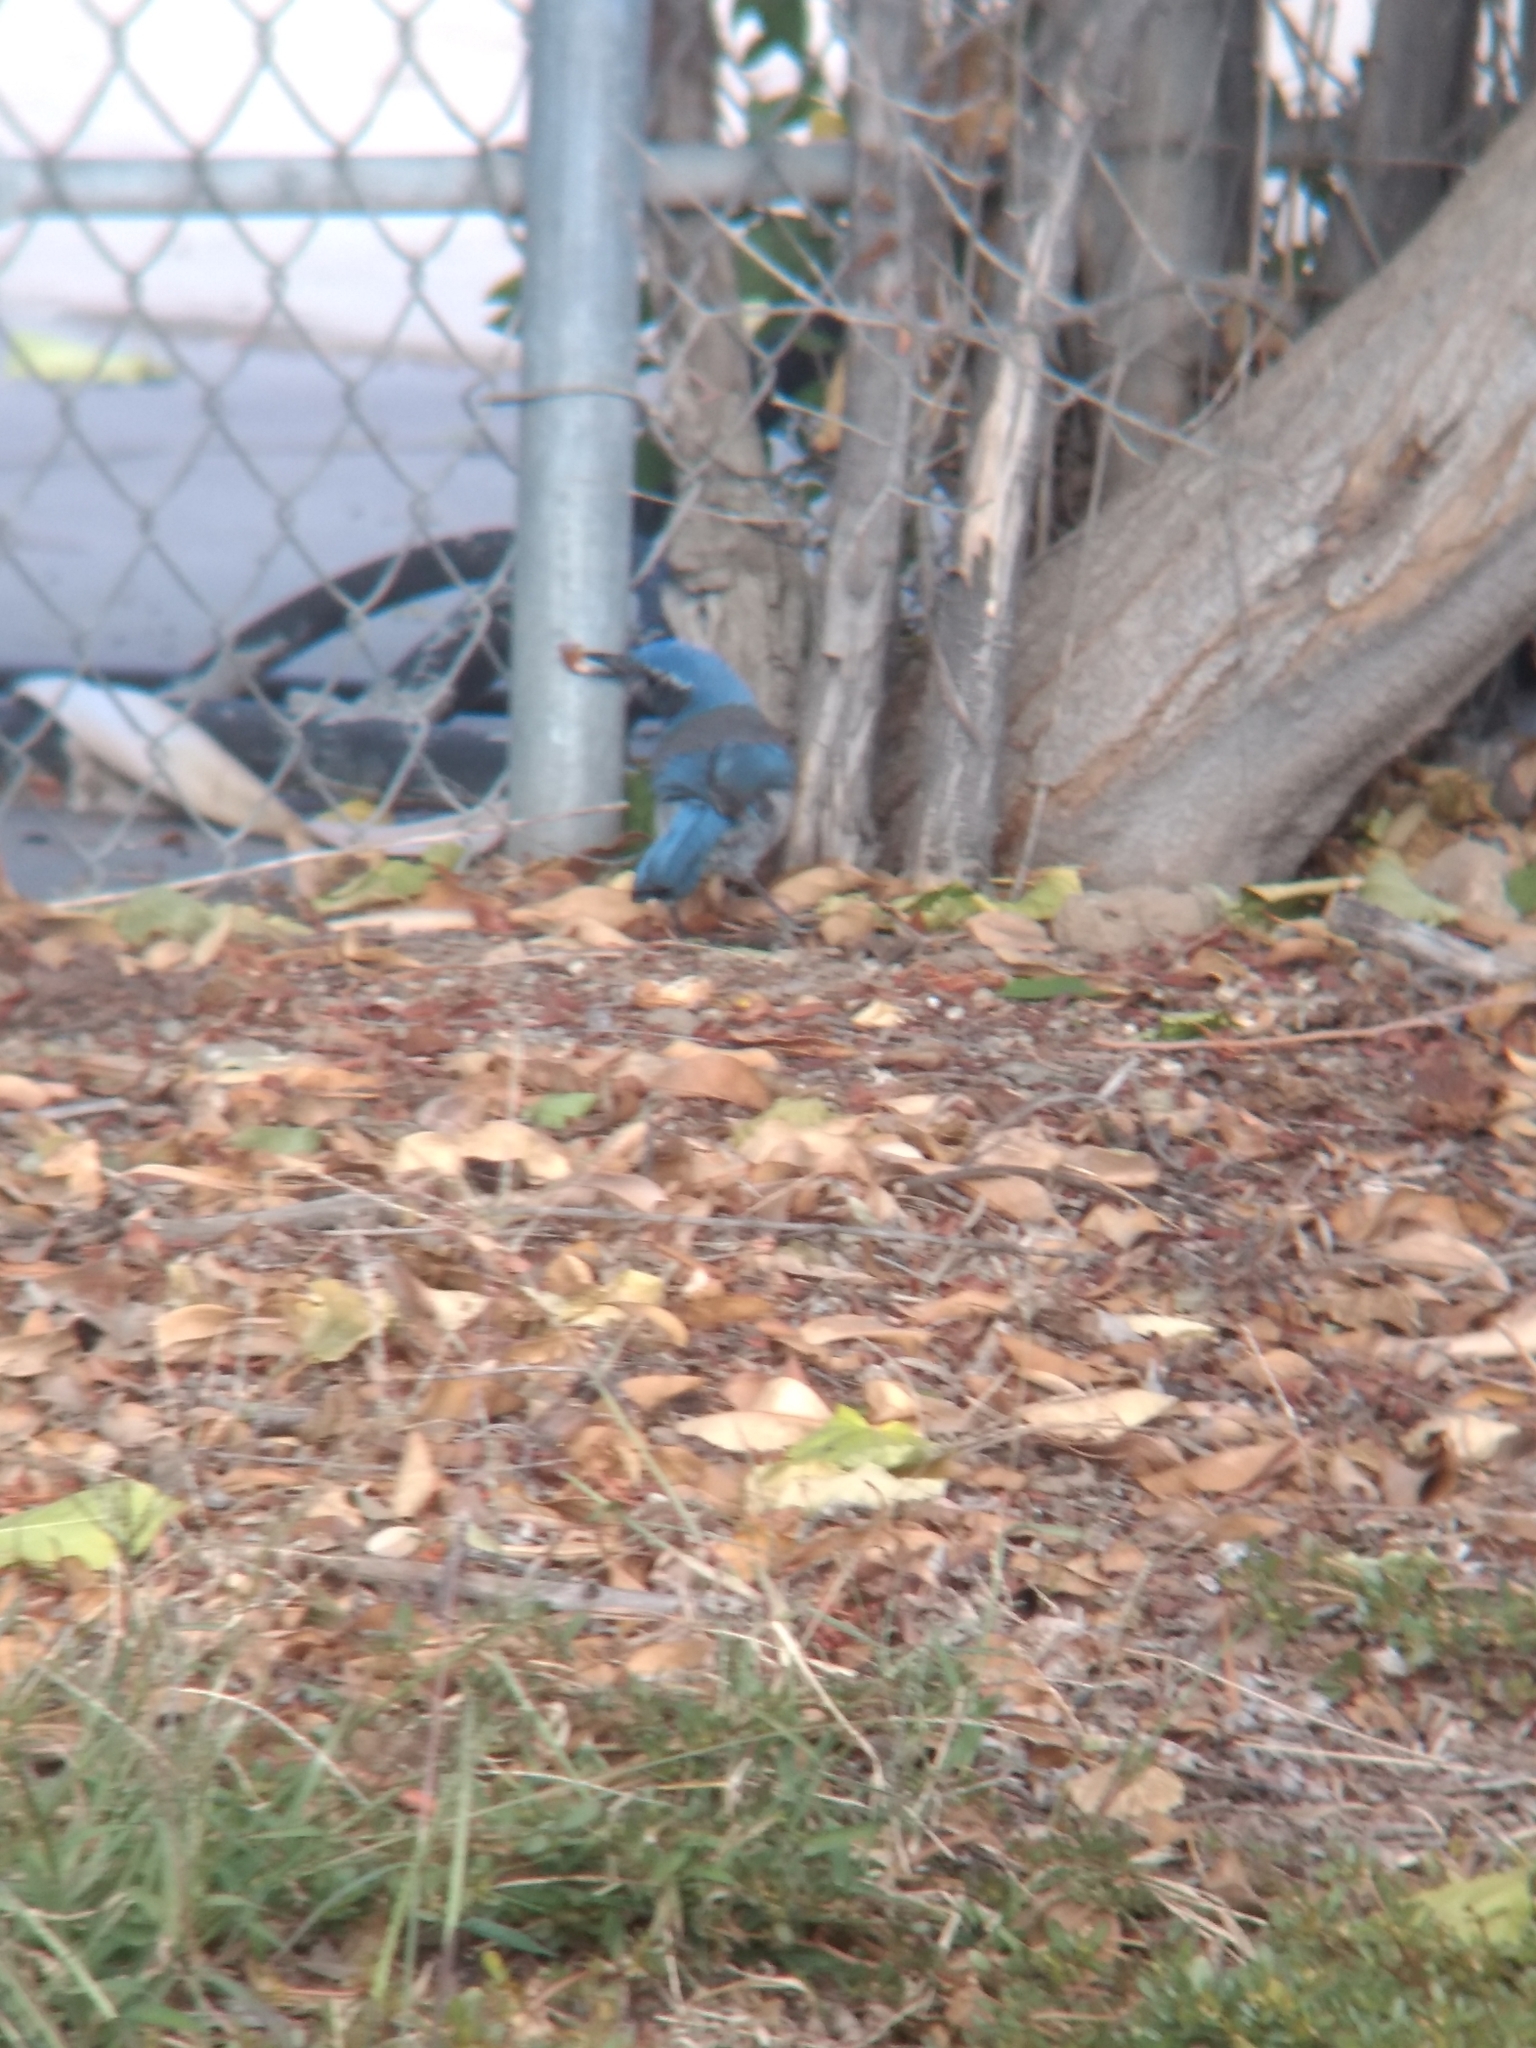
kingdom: Animalia
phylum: Chordata
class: Aves
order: Passeriformes
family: Corvidae
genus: Aphelocoma
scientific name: Aphelocoma californica
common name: California scrub-jay
